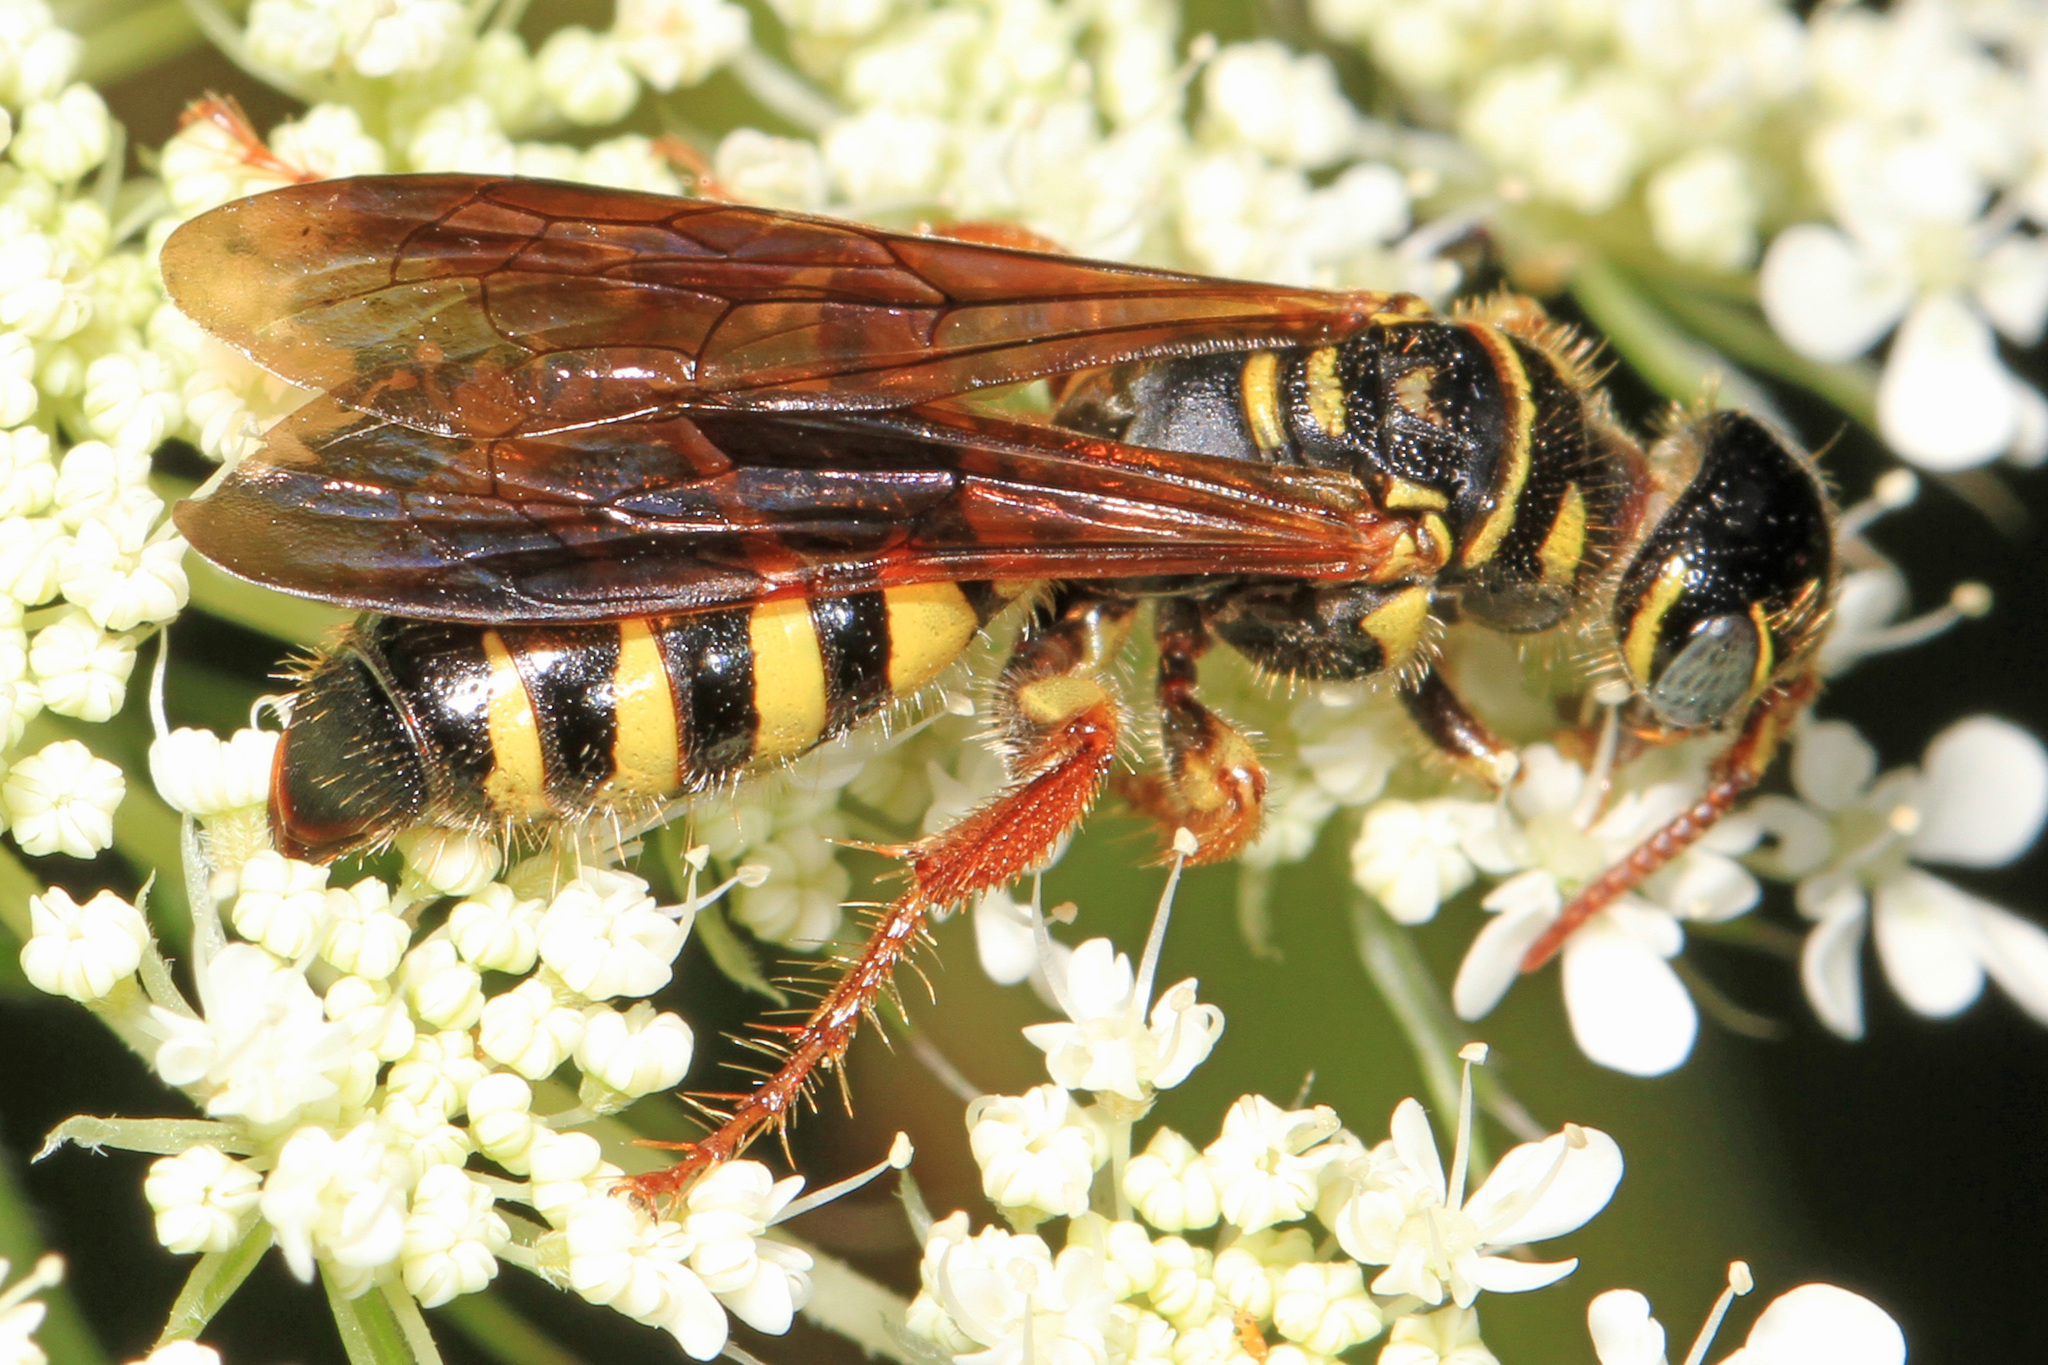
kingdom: Animalia
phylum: Arthropoda
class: Insecta
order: Hymenoptera
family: Tiphiidae
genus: Myzinum
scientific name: Myzinum quinquecinctum
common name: Five-banded thynnid wasp
